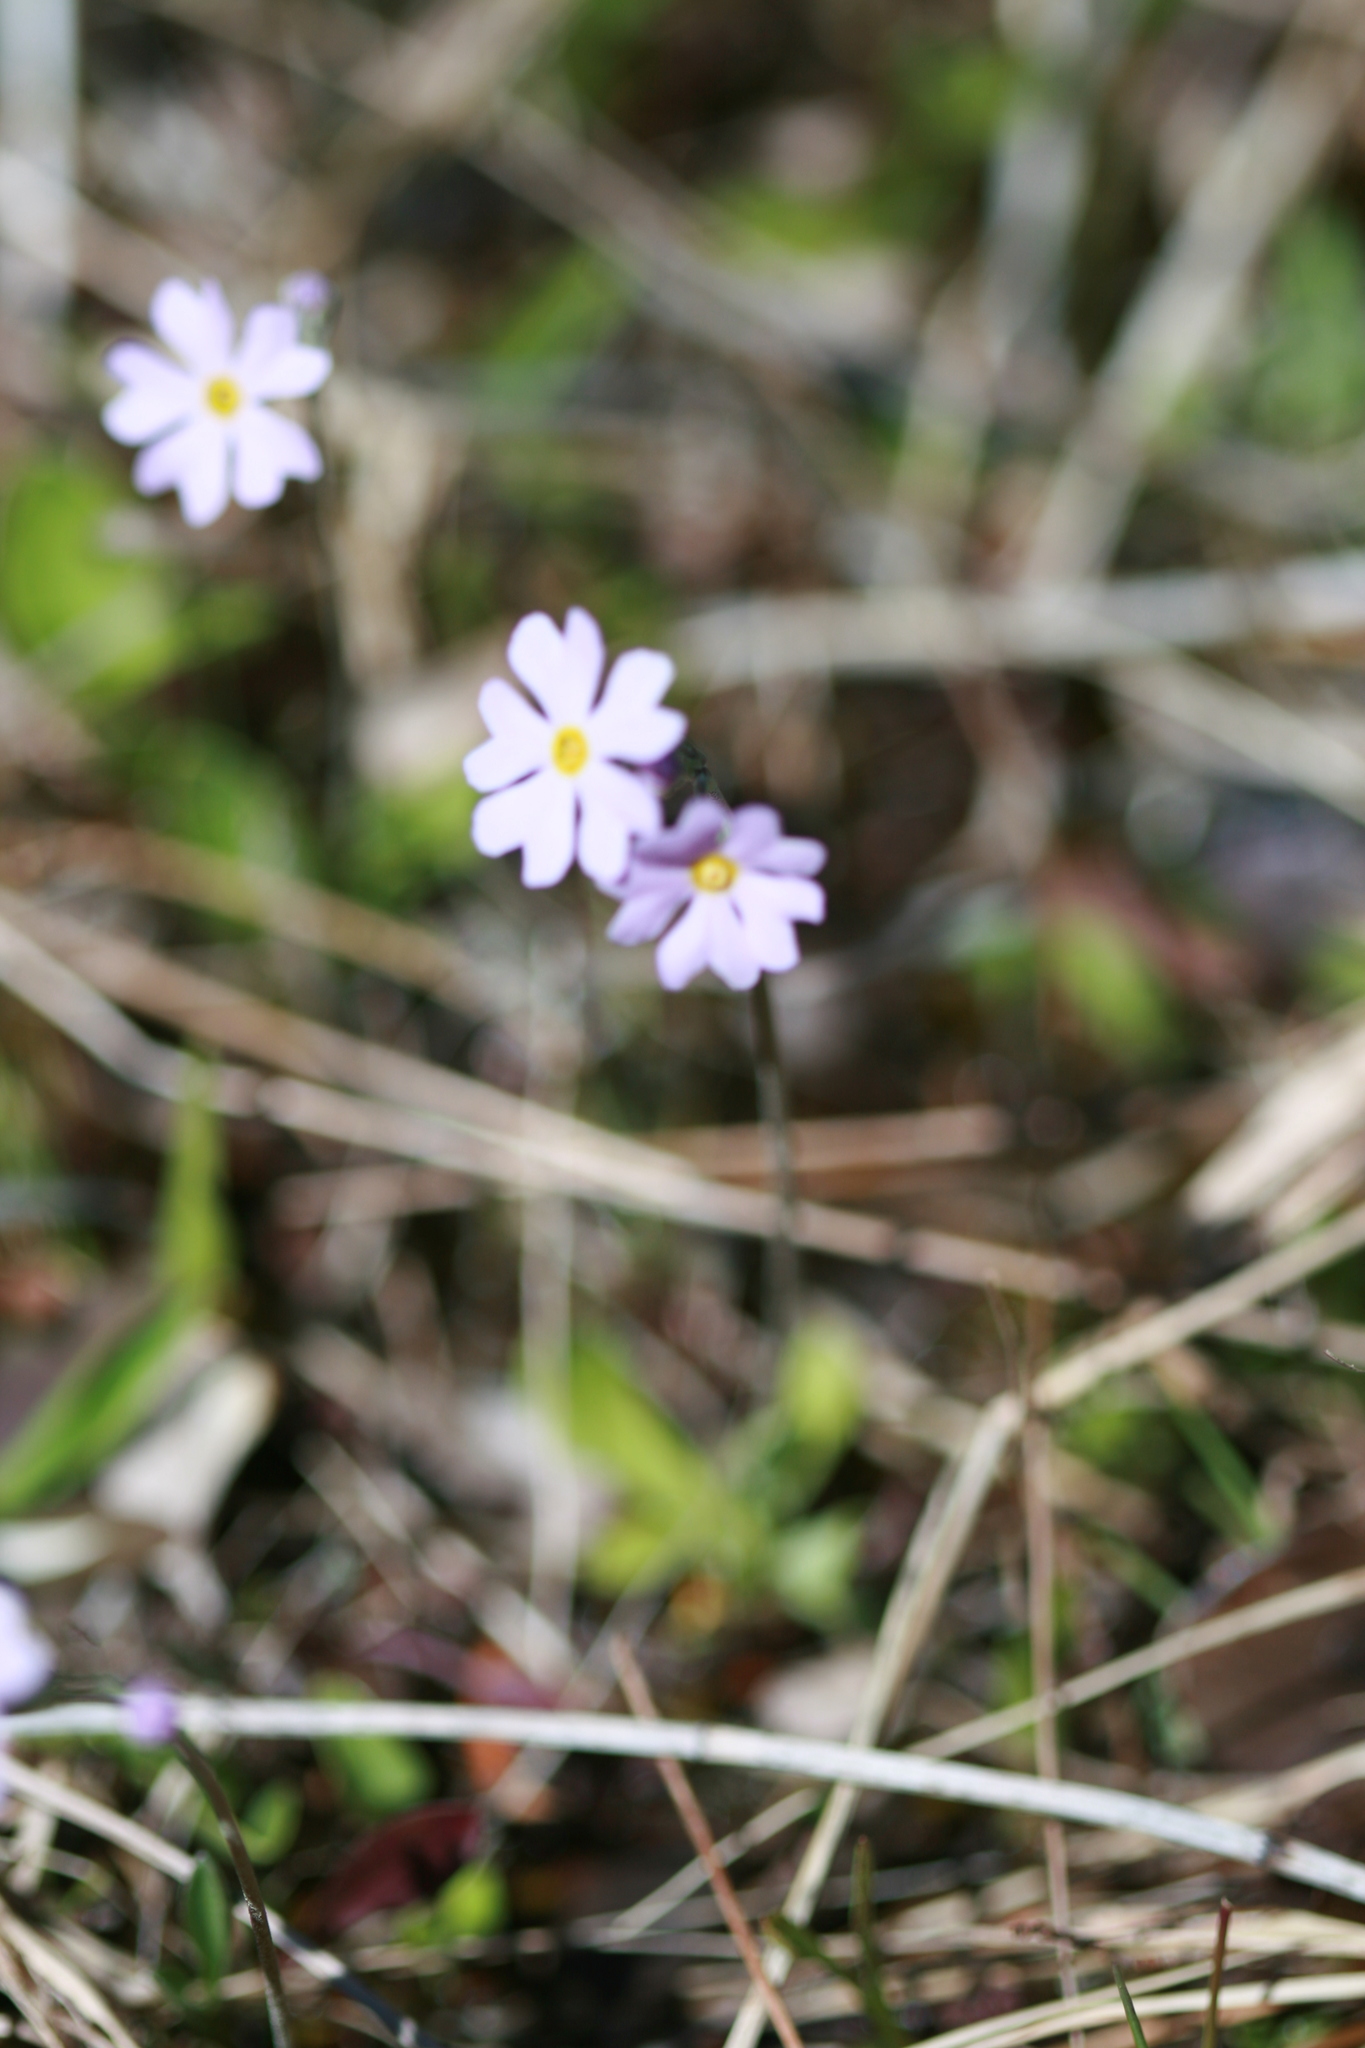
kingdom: Plantae
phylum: Tracheophyta
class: Magnoliopsida
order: Ericales
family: Primulaceae
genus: Primula
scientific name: Primula mistassinica
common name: Bird's-eye primrose
